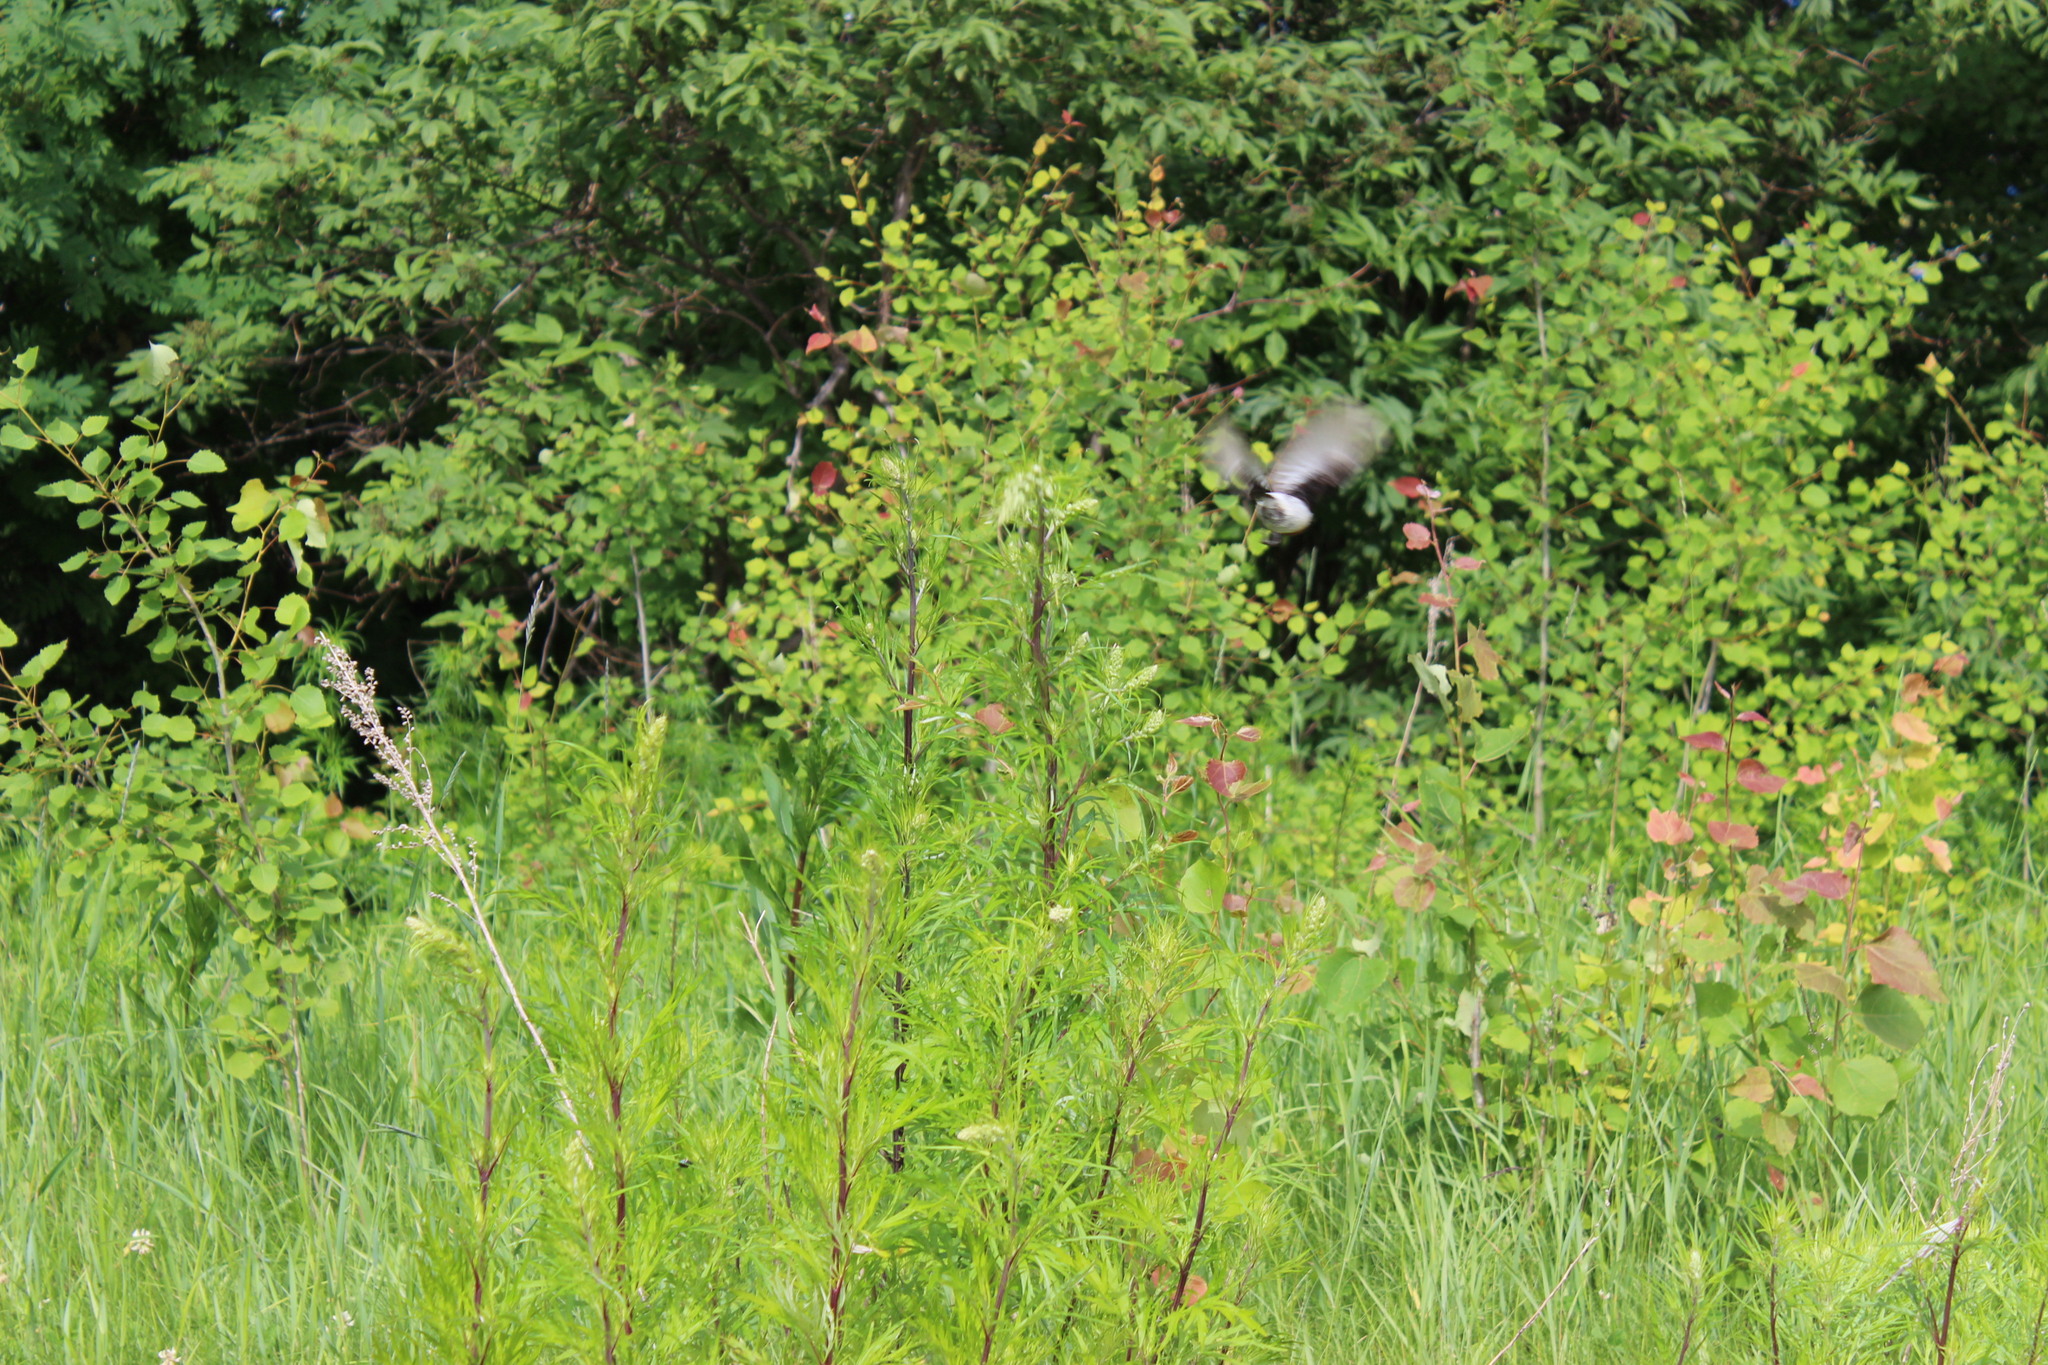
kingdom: Animalia
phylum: Chordata
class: Aves
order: Passeriformes
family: Muscicapidae
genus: Saxicola
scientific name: Saxicola maurus
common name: Siberian stonechat
